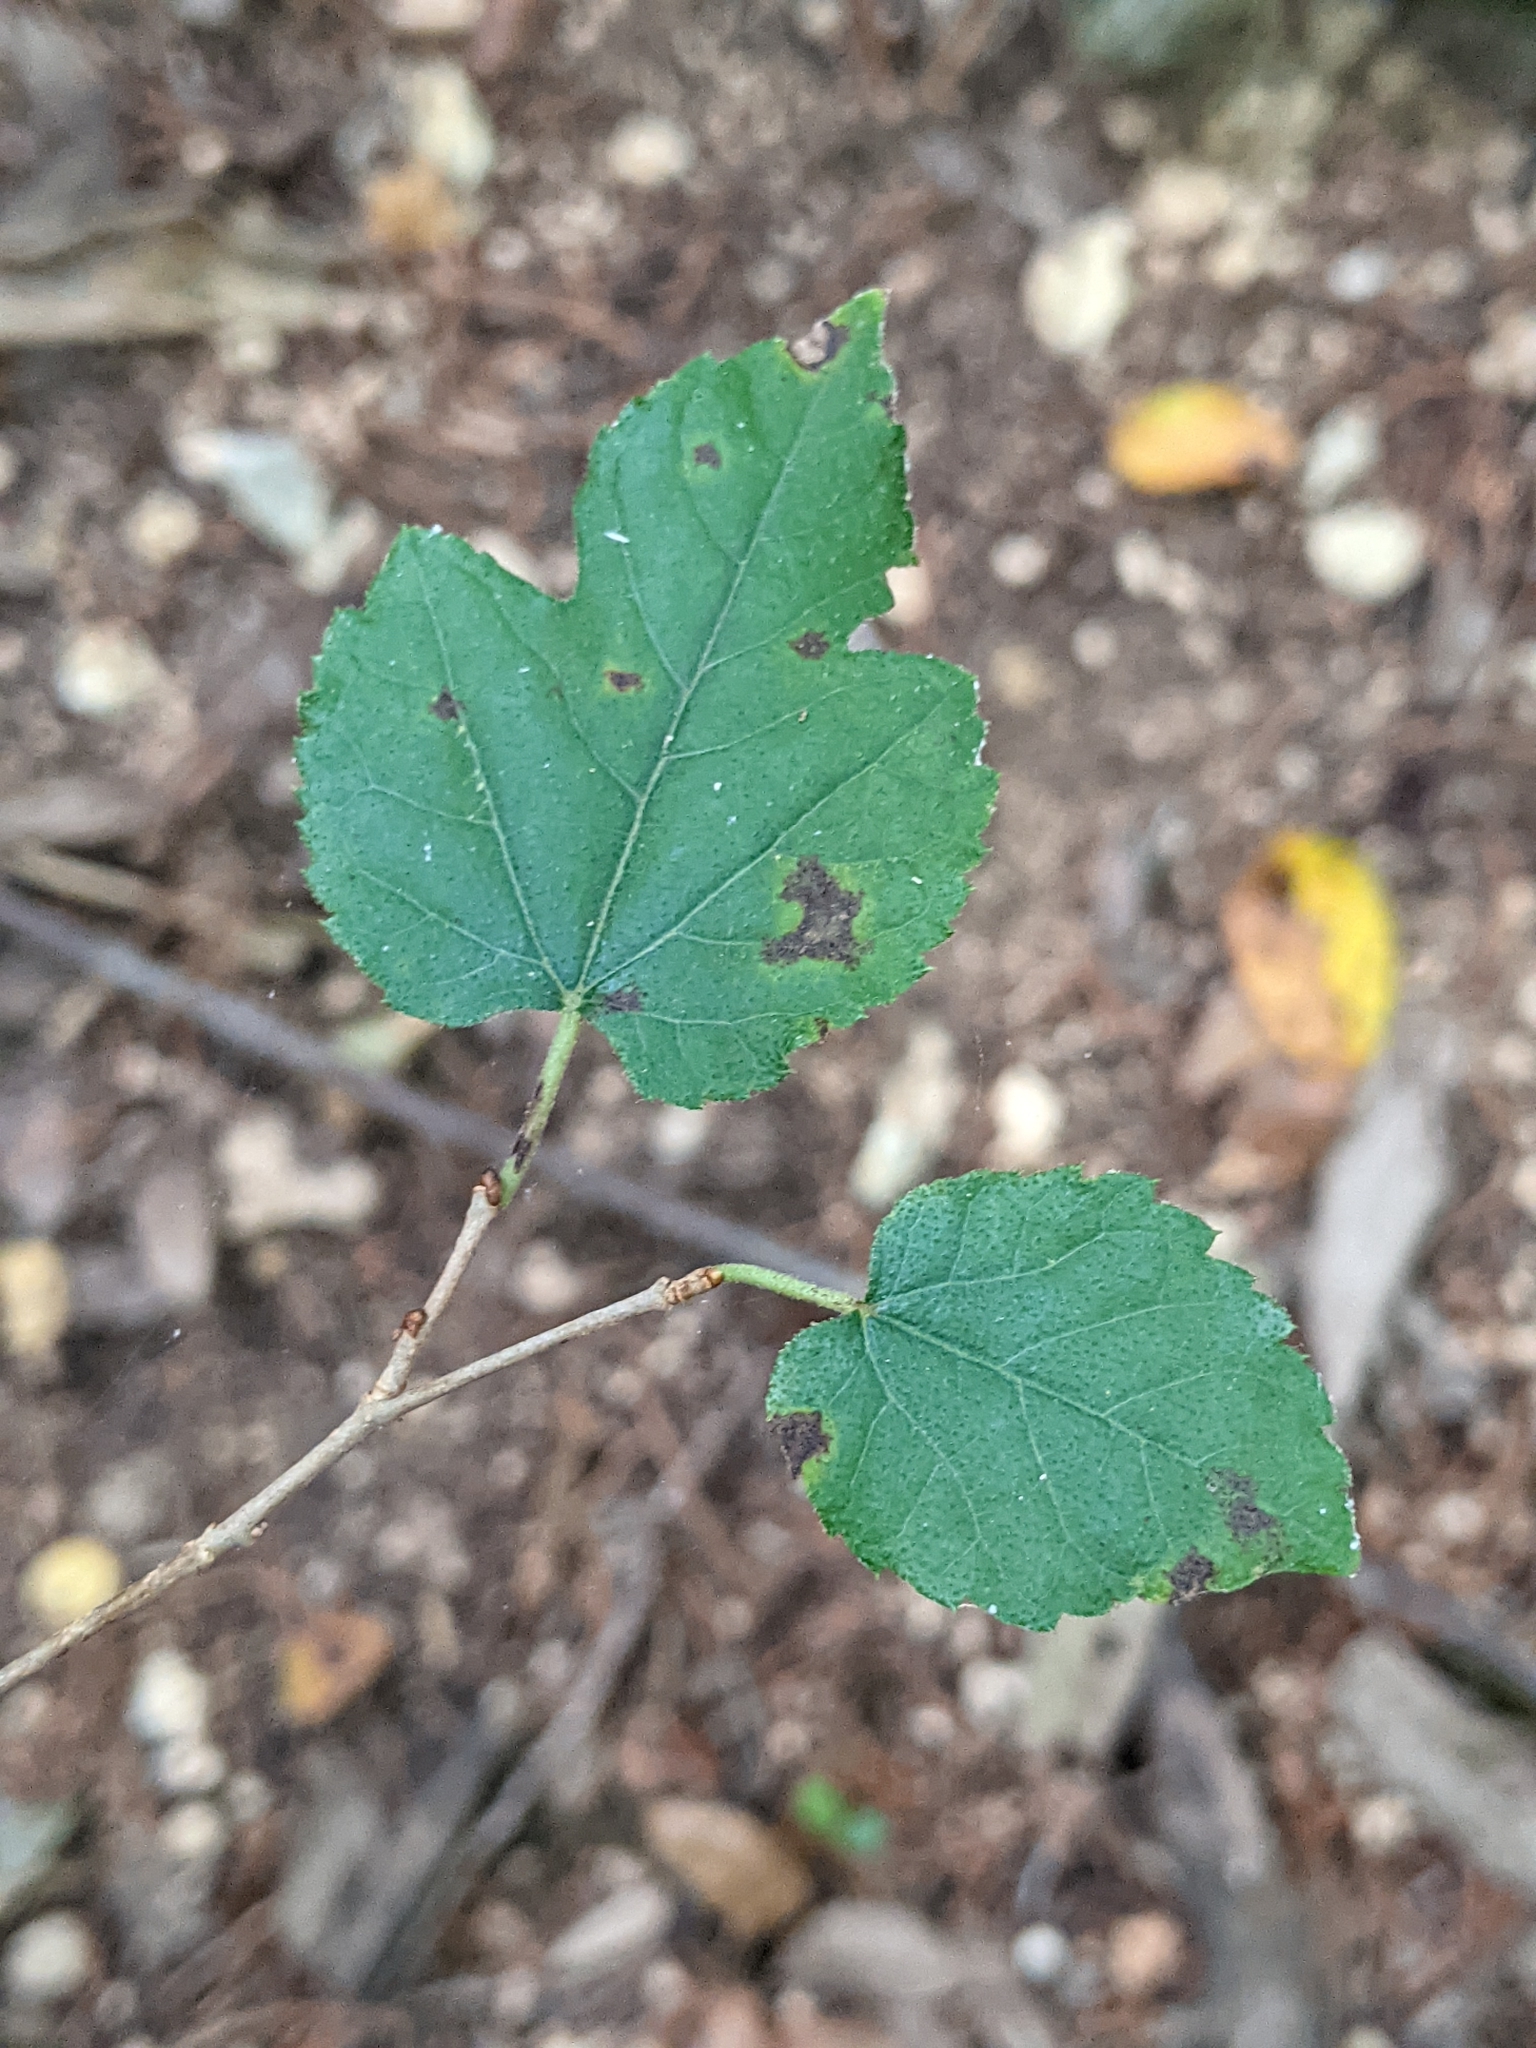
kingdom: Plantae
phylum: Tracheophyta
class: Magnoliopsida
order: Rosales
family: Moraceae
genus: Morus
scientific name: Morus microphylla
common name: Mexican mulberry
